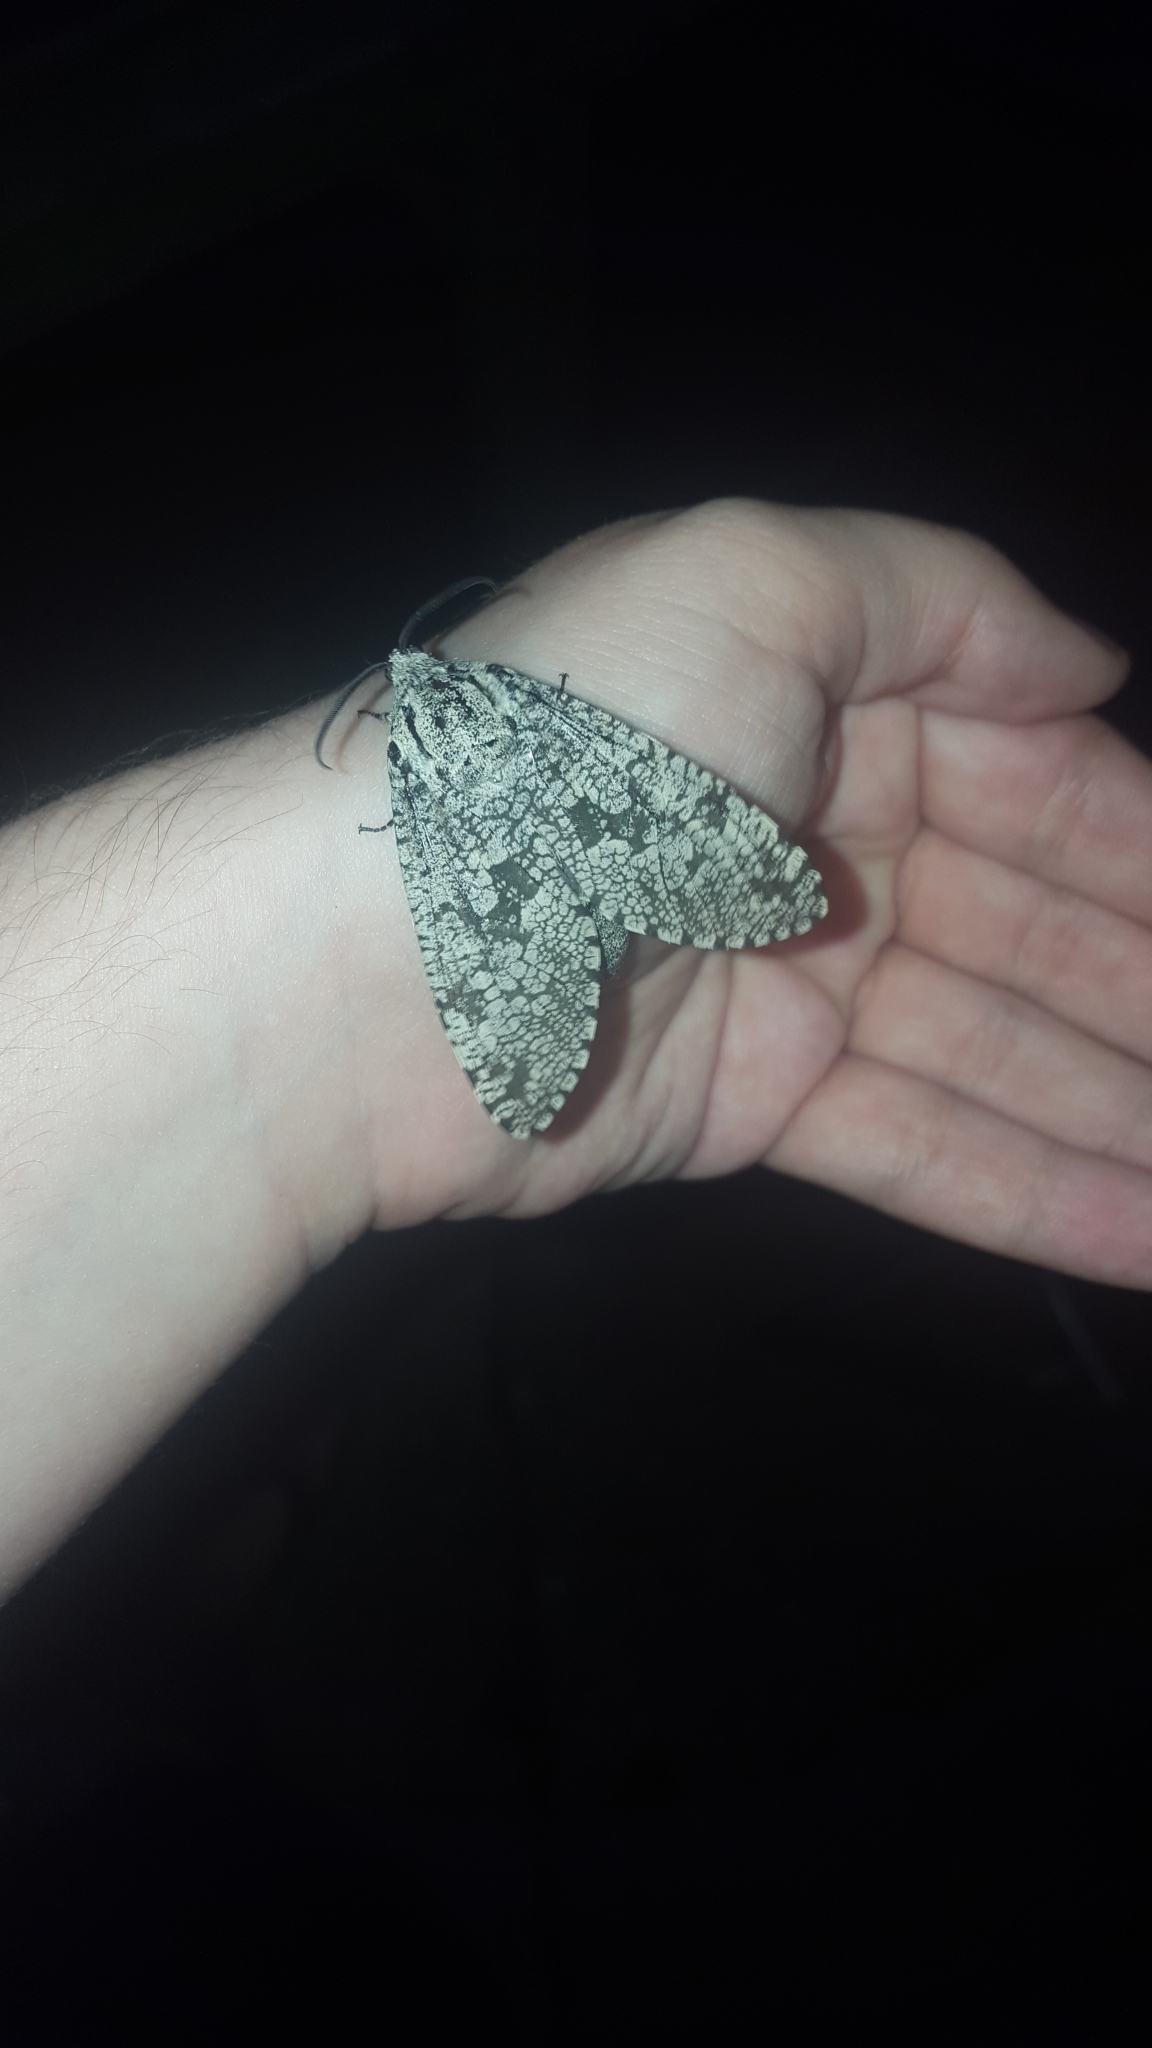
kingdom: Animalia
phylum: Arthropoda
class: Insecta
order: Lepidoptera
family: Cossidae
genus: Prionoxystus
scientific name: Prionoxystus robiniae
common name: Carpenterworm
